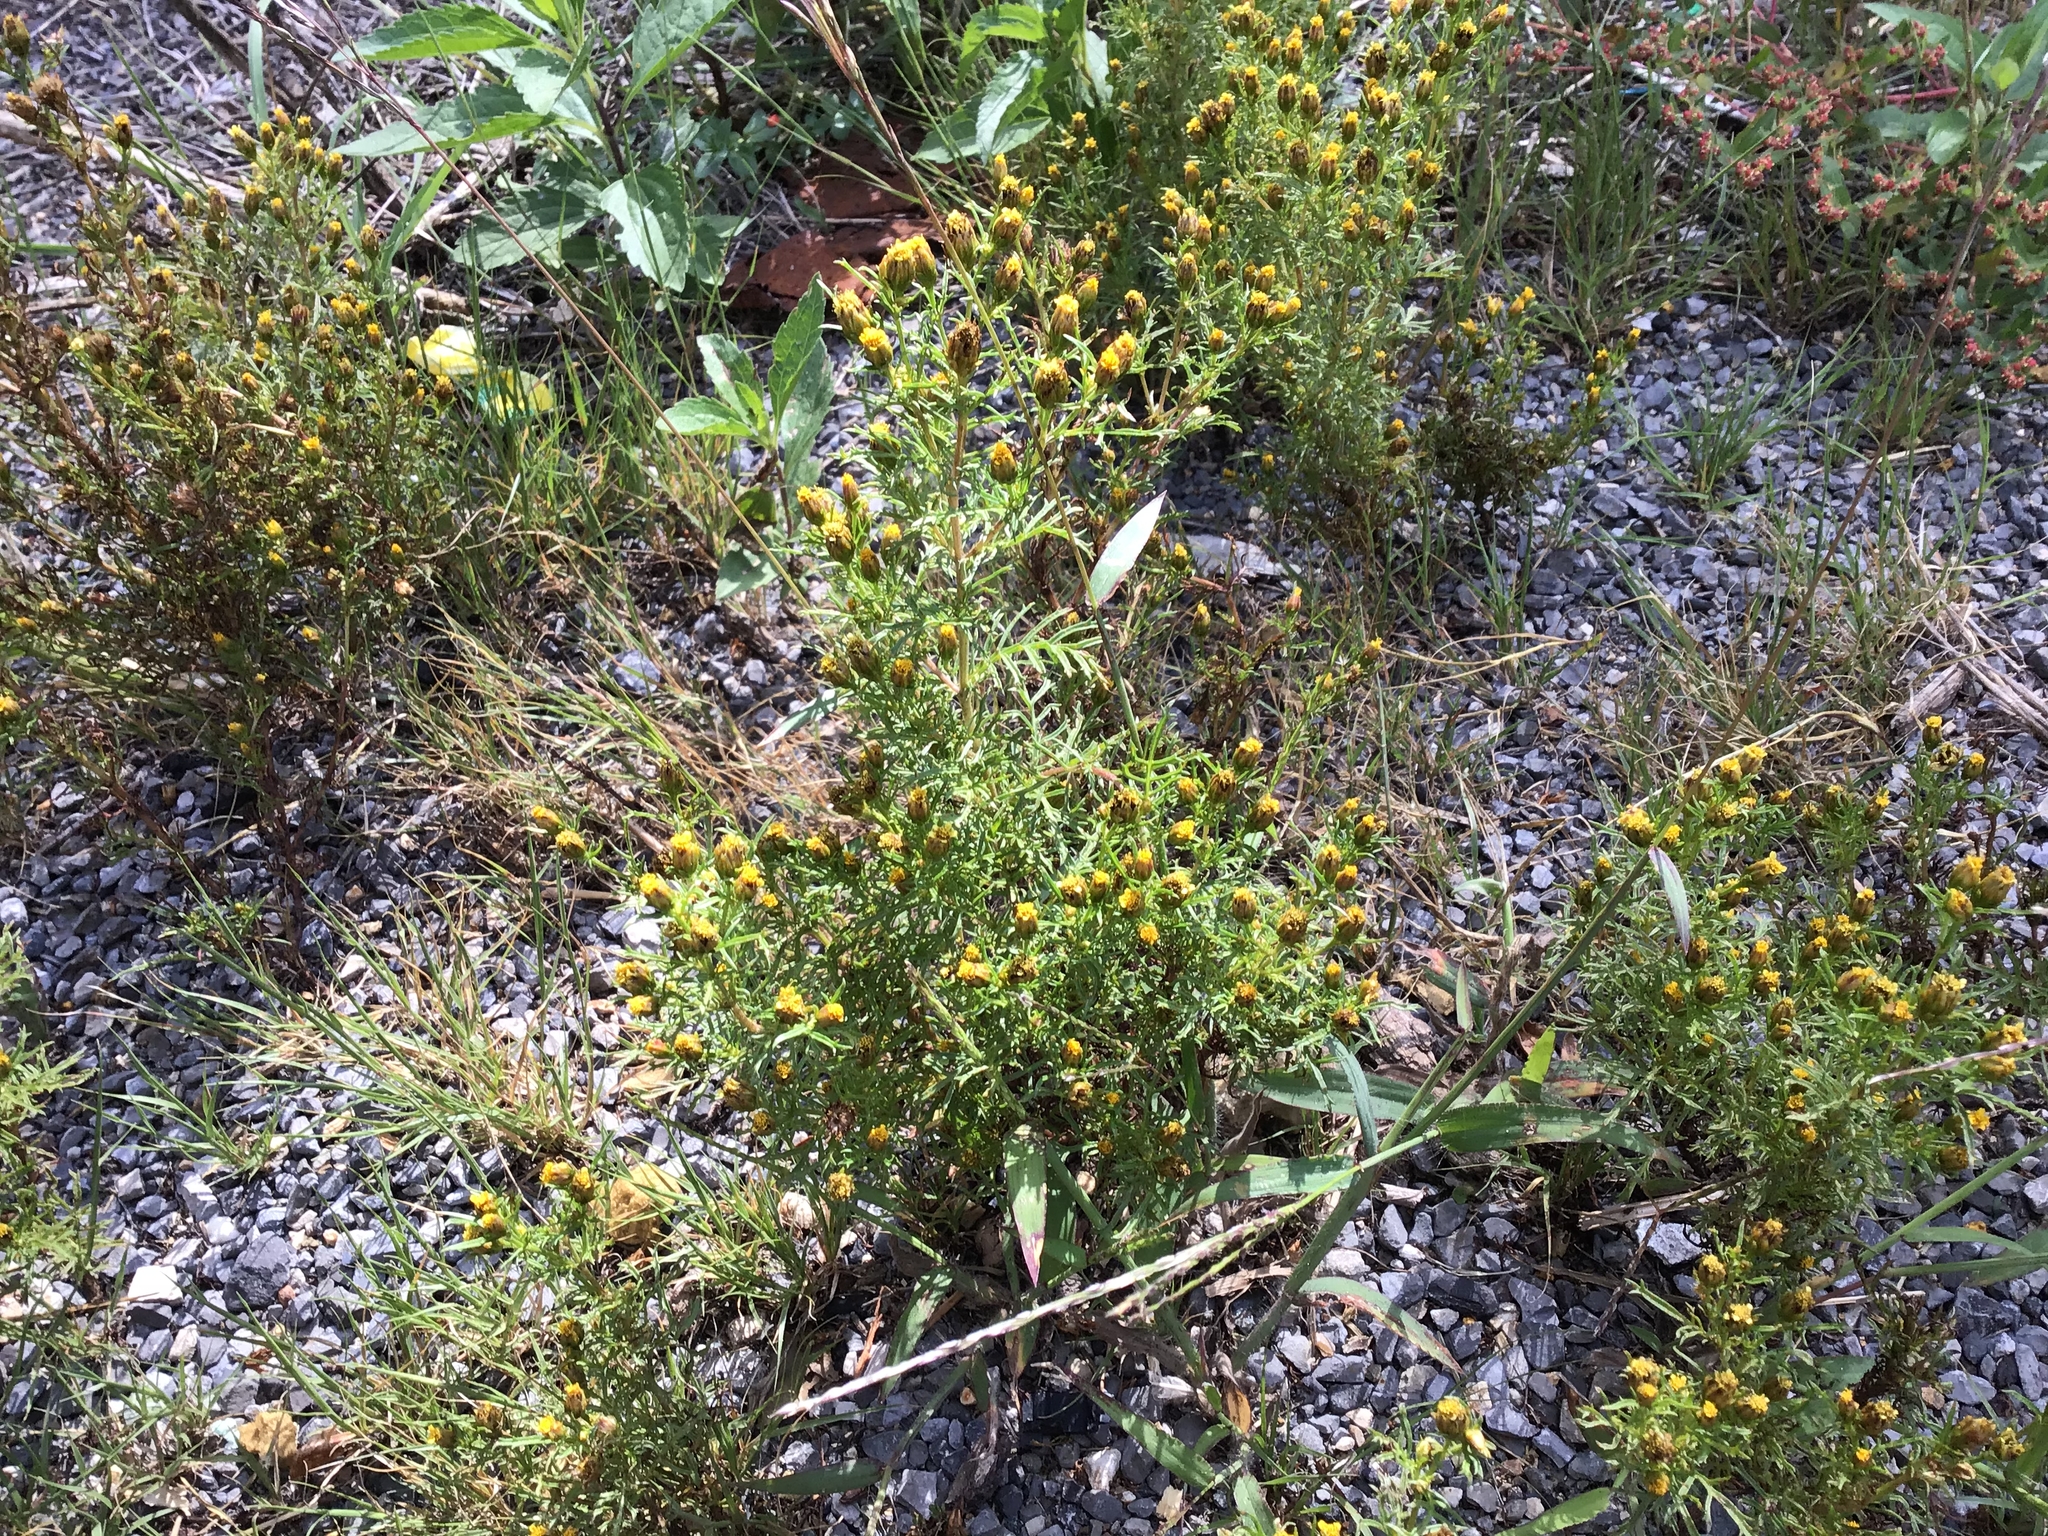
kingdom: Plantae
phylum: Tracheophyta
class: Magnoliopsida
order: Asterales
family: Asteraceae
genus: Dyssodia
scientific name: Dyssodia papposa
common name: Dogweed
